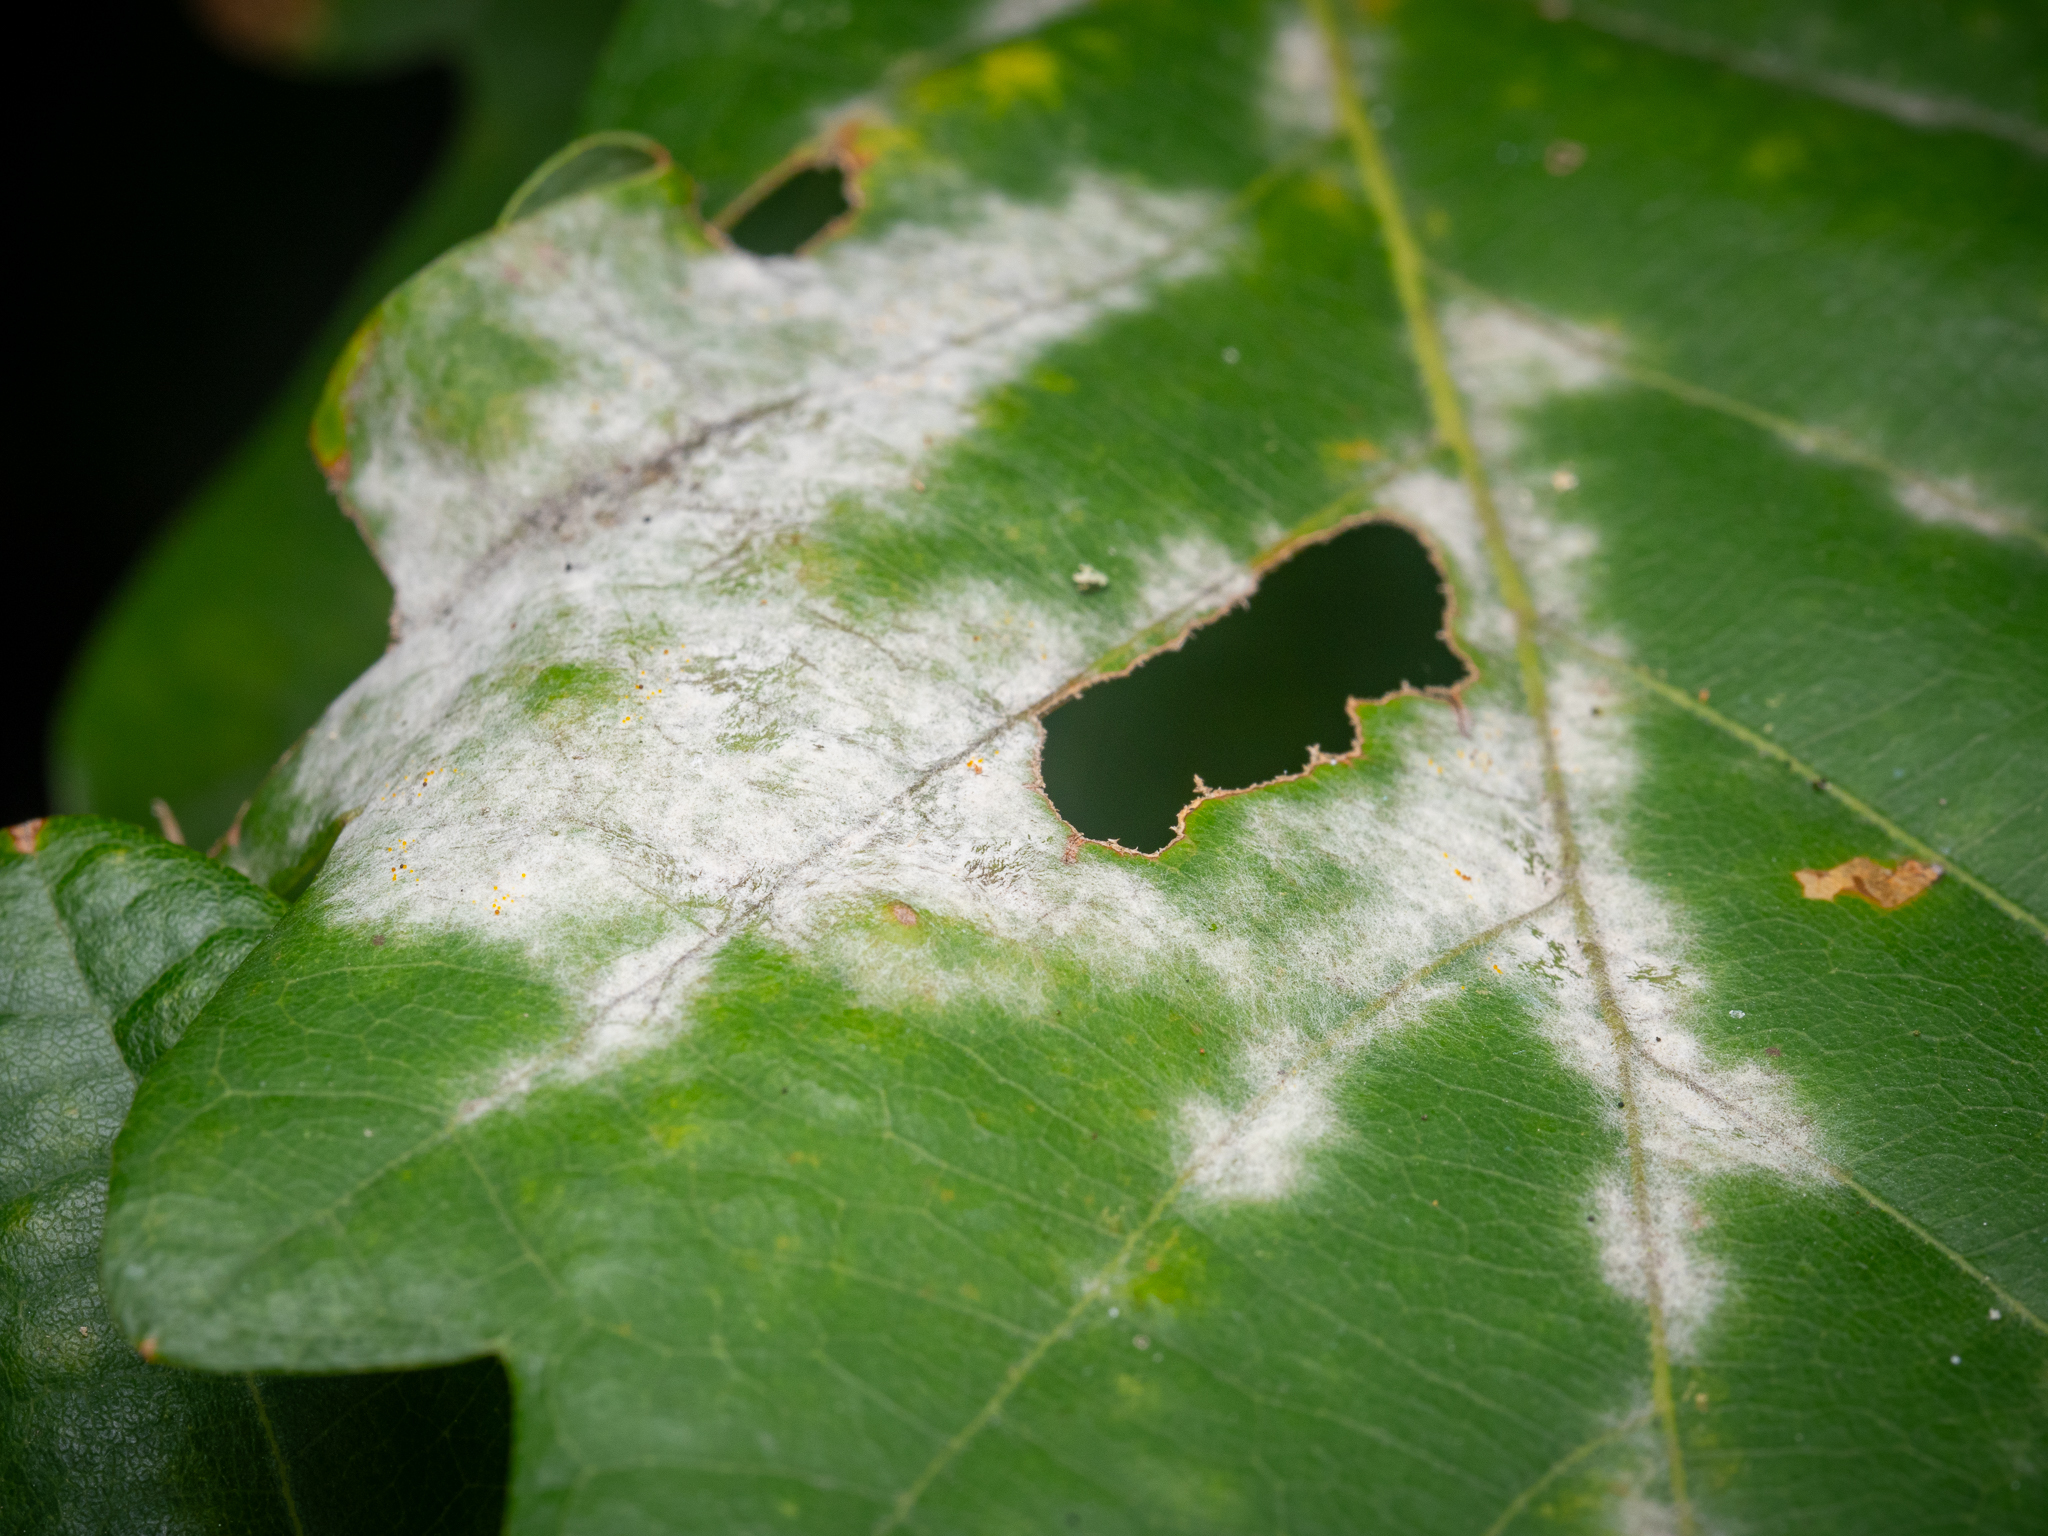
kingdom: Fungi
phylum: Ascomycota
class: Leotiomycetes
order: Helotiales
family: Erysiphaceae
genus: Erysiphe
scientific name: Erysiphe
